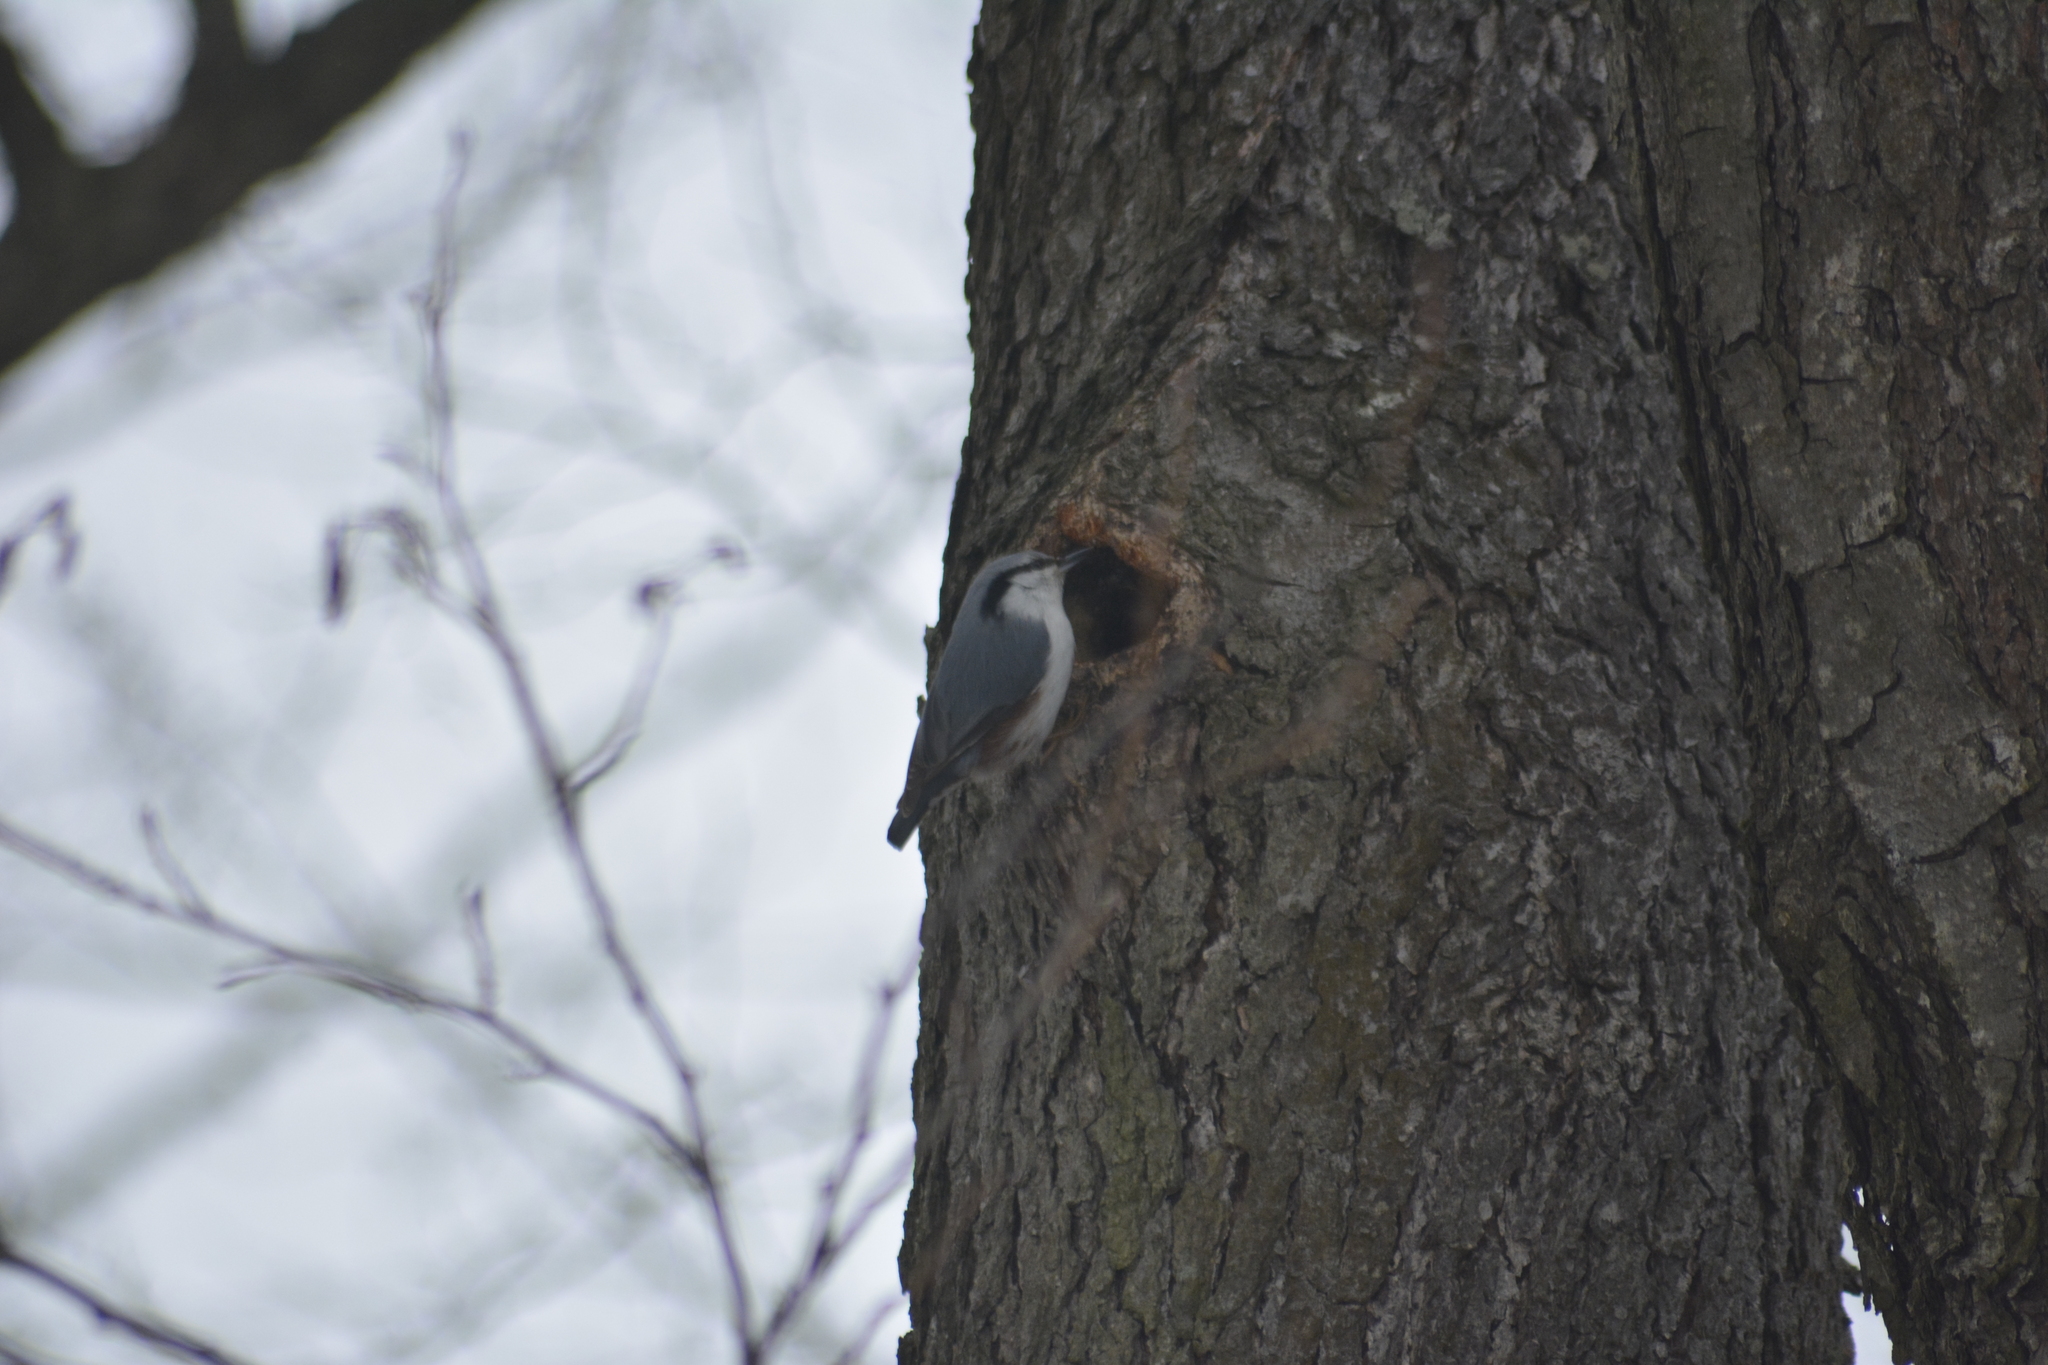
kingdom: Animalia
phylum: Chordata
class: Aves
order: Passeriformes
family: Sittidae
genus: Sitta
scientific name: Sitta europaea
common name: Eurasian nuthatch
